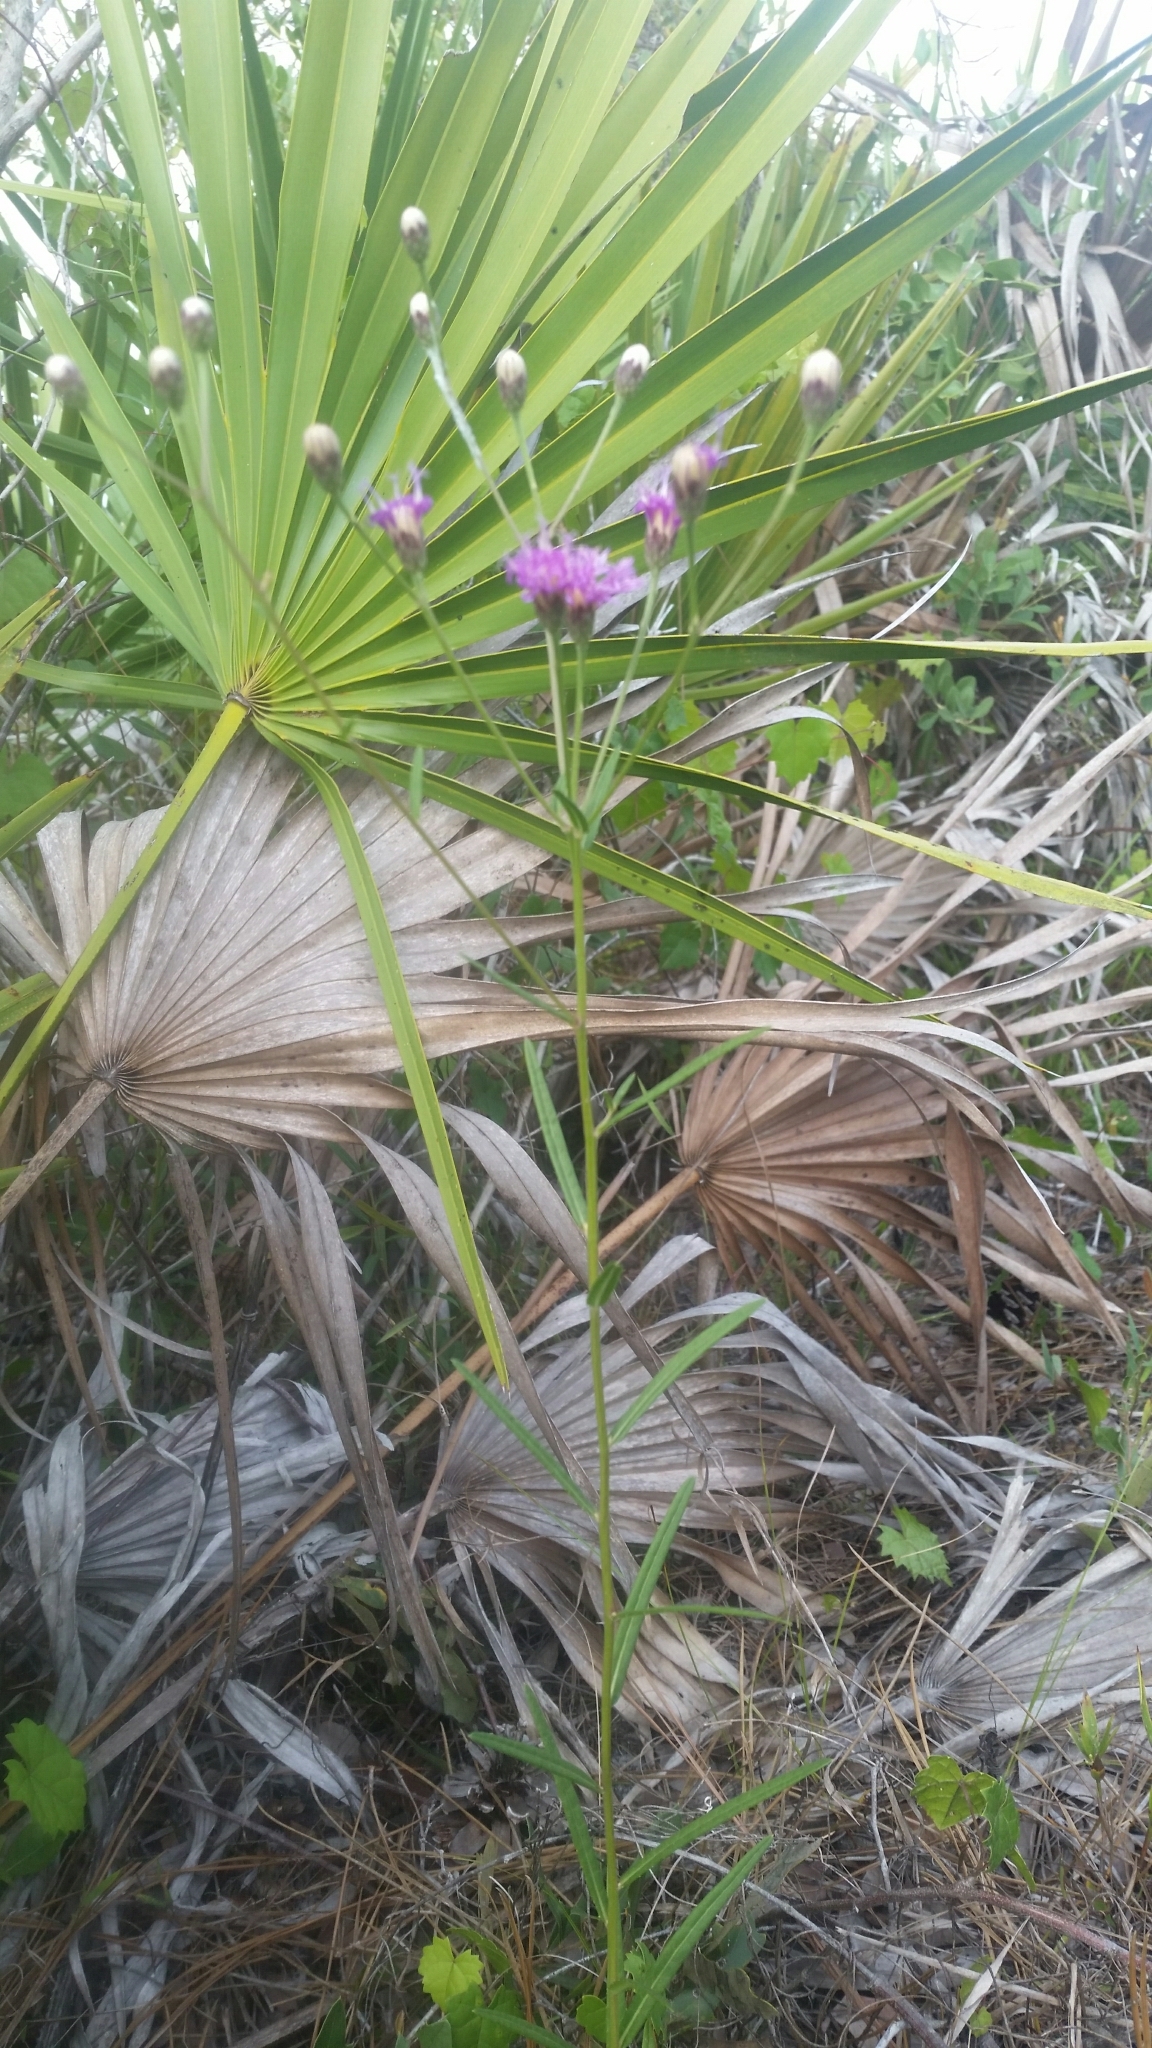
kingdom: Plantae
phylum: Tracheophyta
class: Magnoliopsida
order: Asterales
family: Asteraceae
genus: Vernonia
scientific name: Vernonia blodgettii
